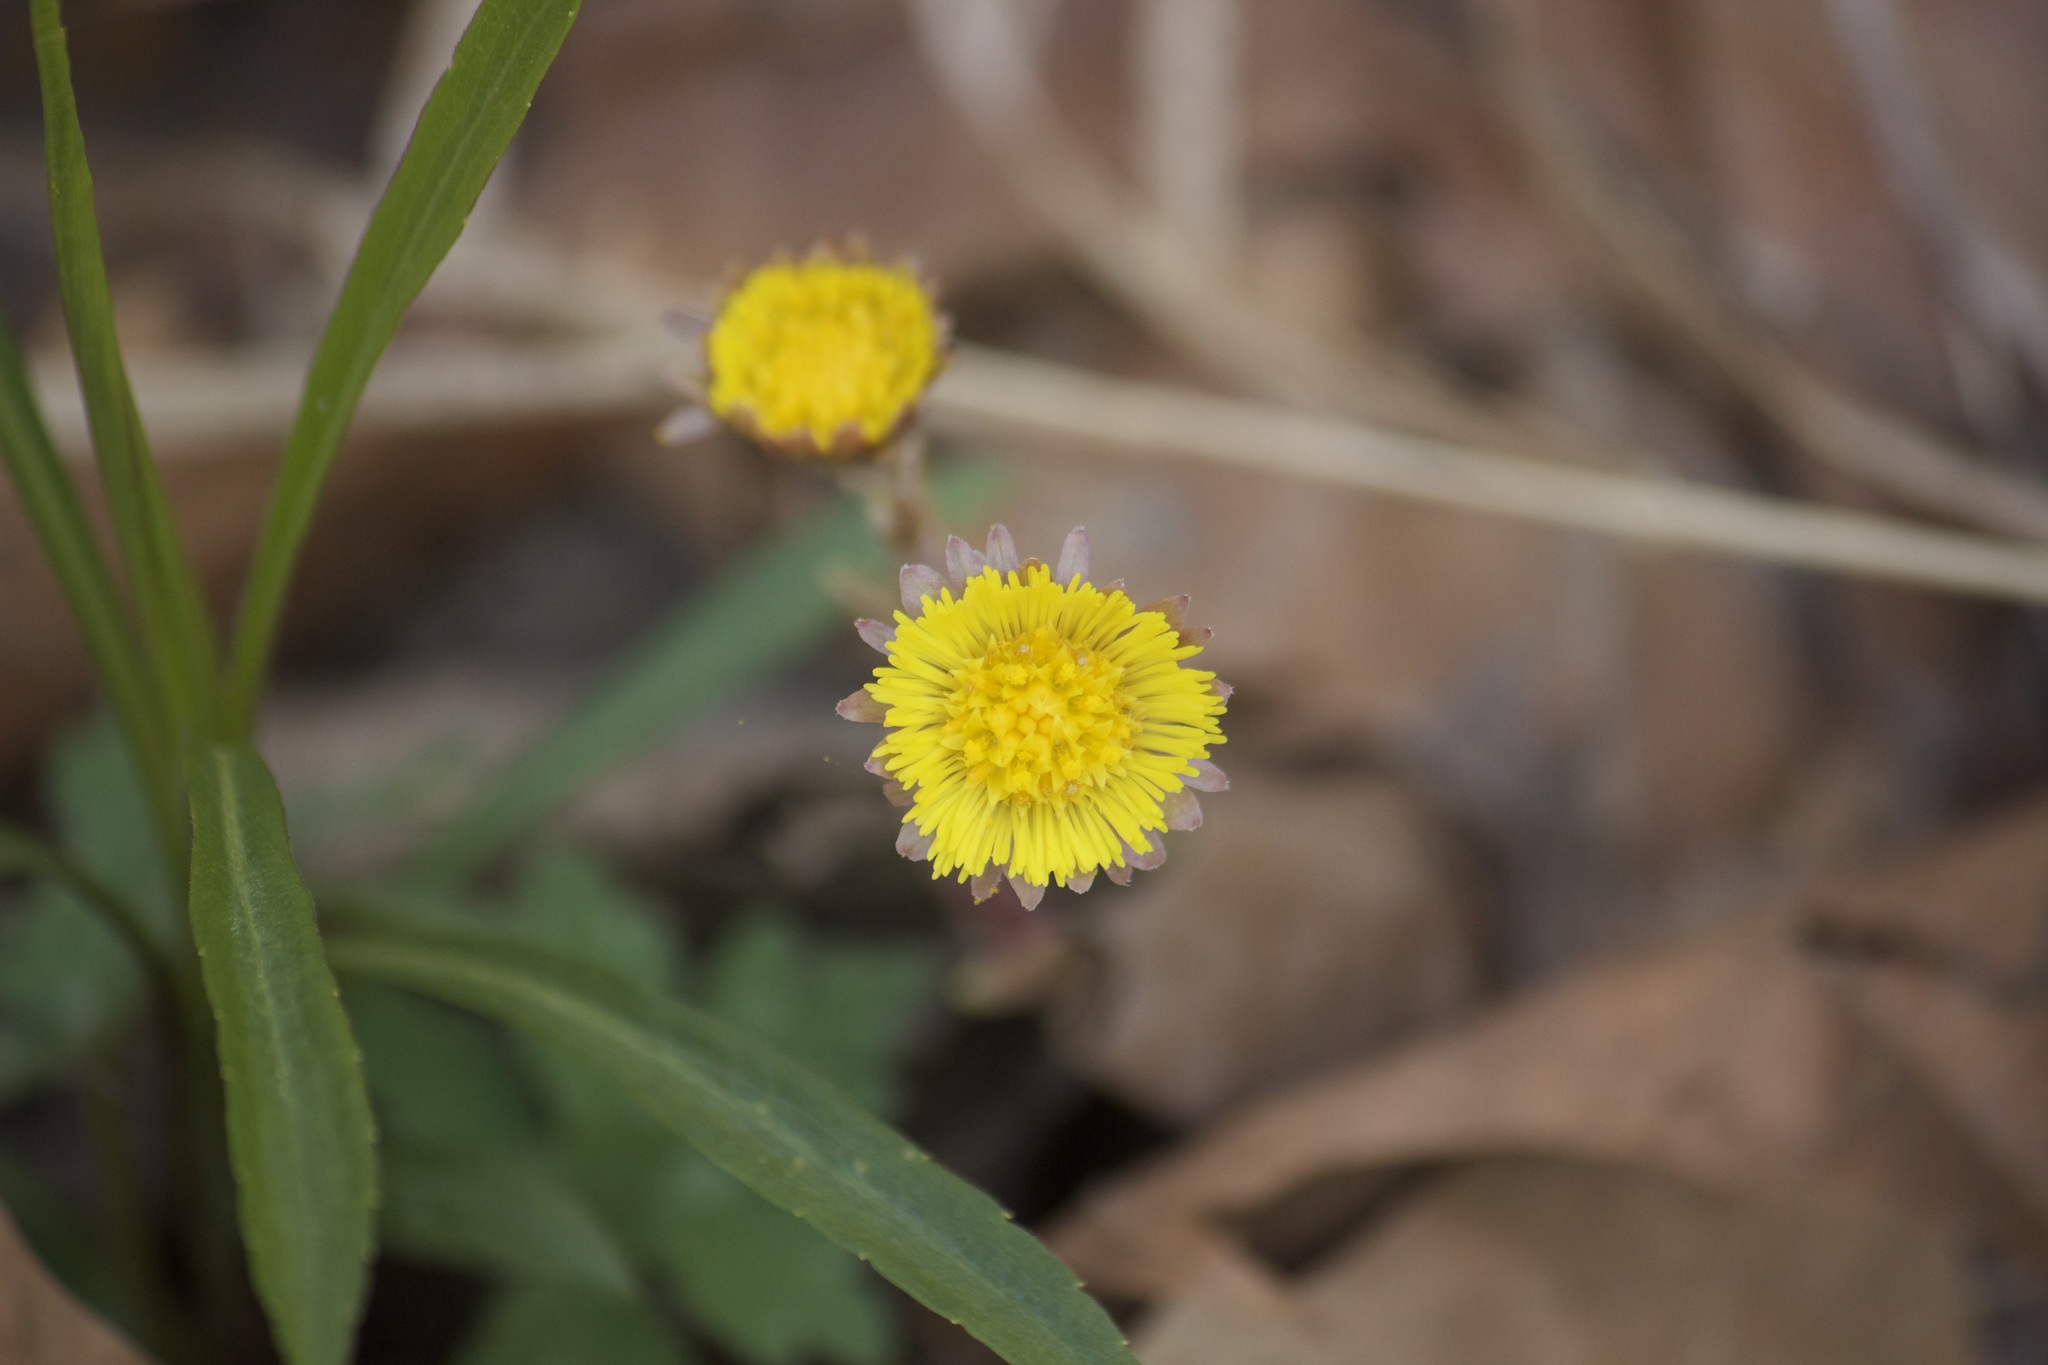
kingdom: Plantae
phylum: Tracheophyta
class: Magnoliopsida
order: Asterales
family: Asteraceae
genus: Tussilago
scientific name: Tussilago farfara
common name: Coltsfoot
